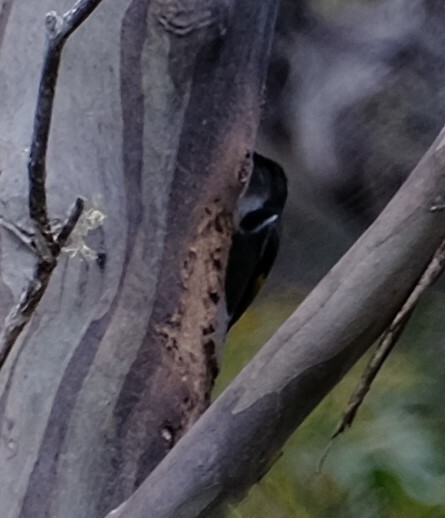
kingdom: Animalia
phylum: Chordata
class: Aves
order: Passeriformes
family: Meliphagidae
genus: Phylidonyris
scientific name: Phylidonyris pyrrhopterus
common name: Crescent honeyeater
